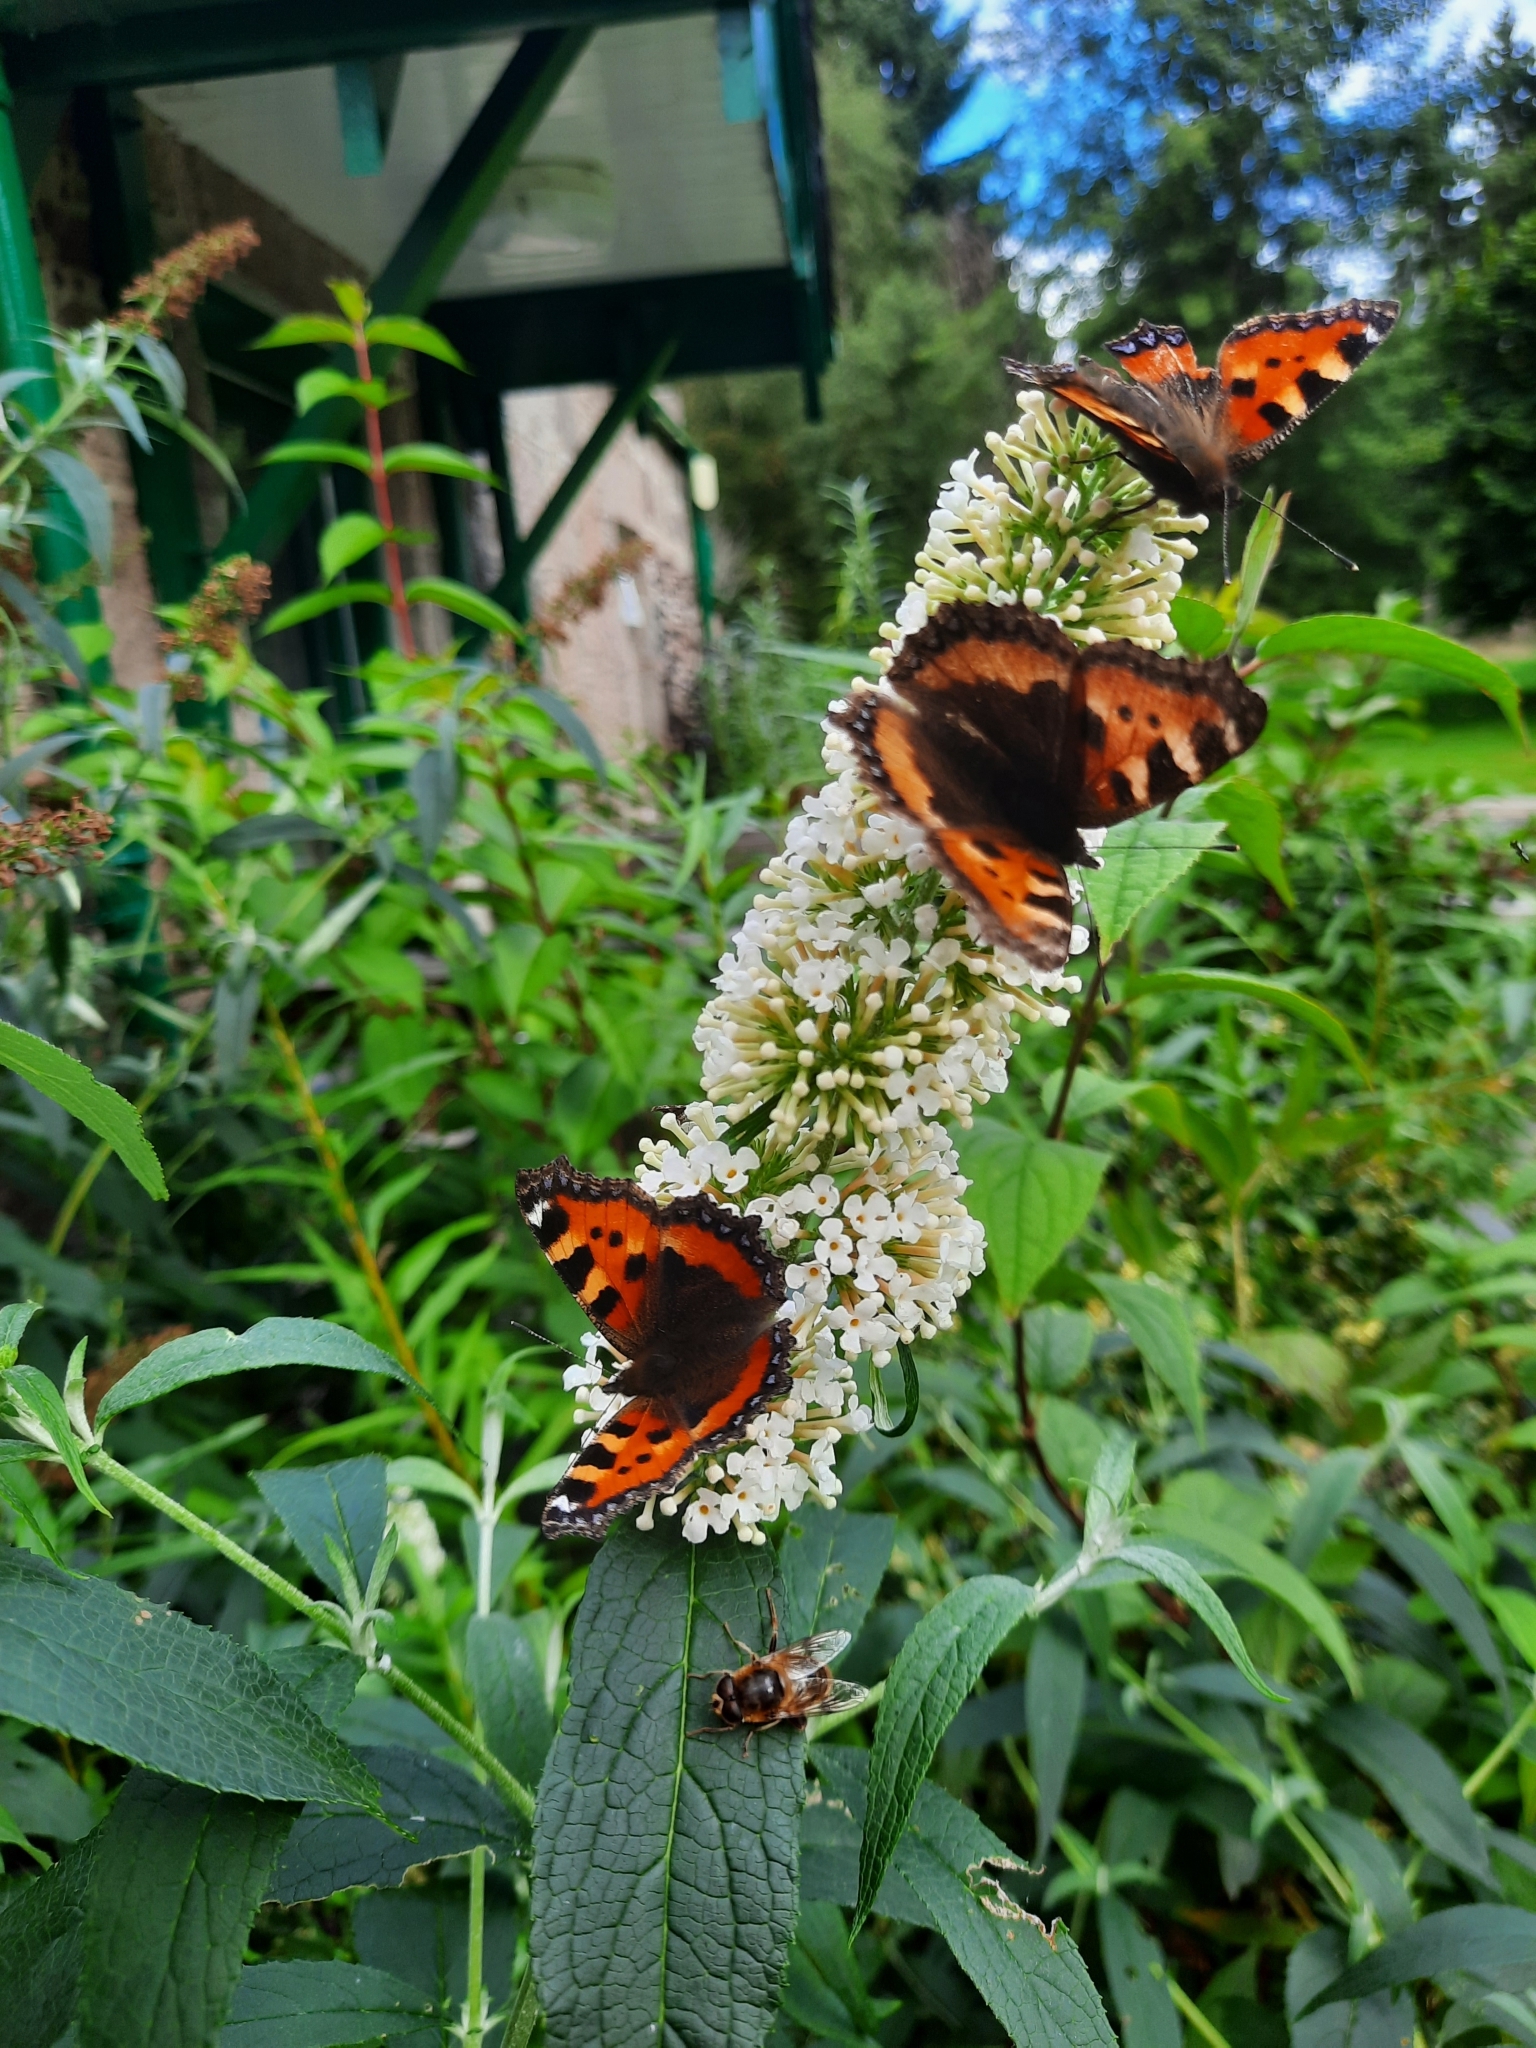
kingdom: Animalia
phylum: Arthropoda
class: Insecta
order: Lepidoptera
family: Nymphalidae
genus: Aglais
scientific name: Aglais urticae
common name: Small tortoiseshell
